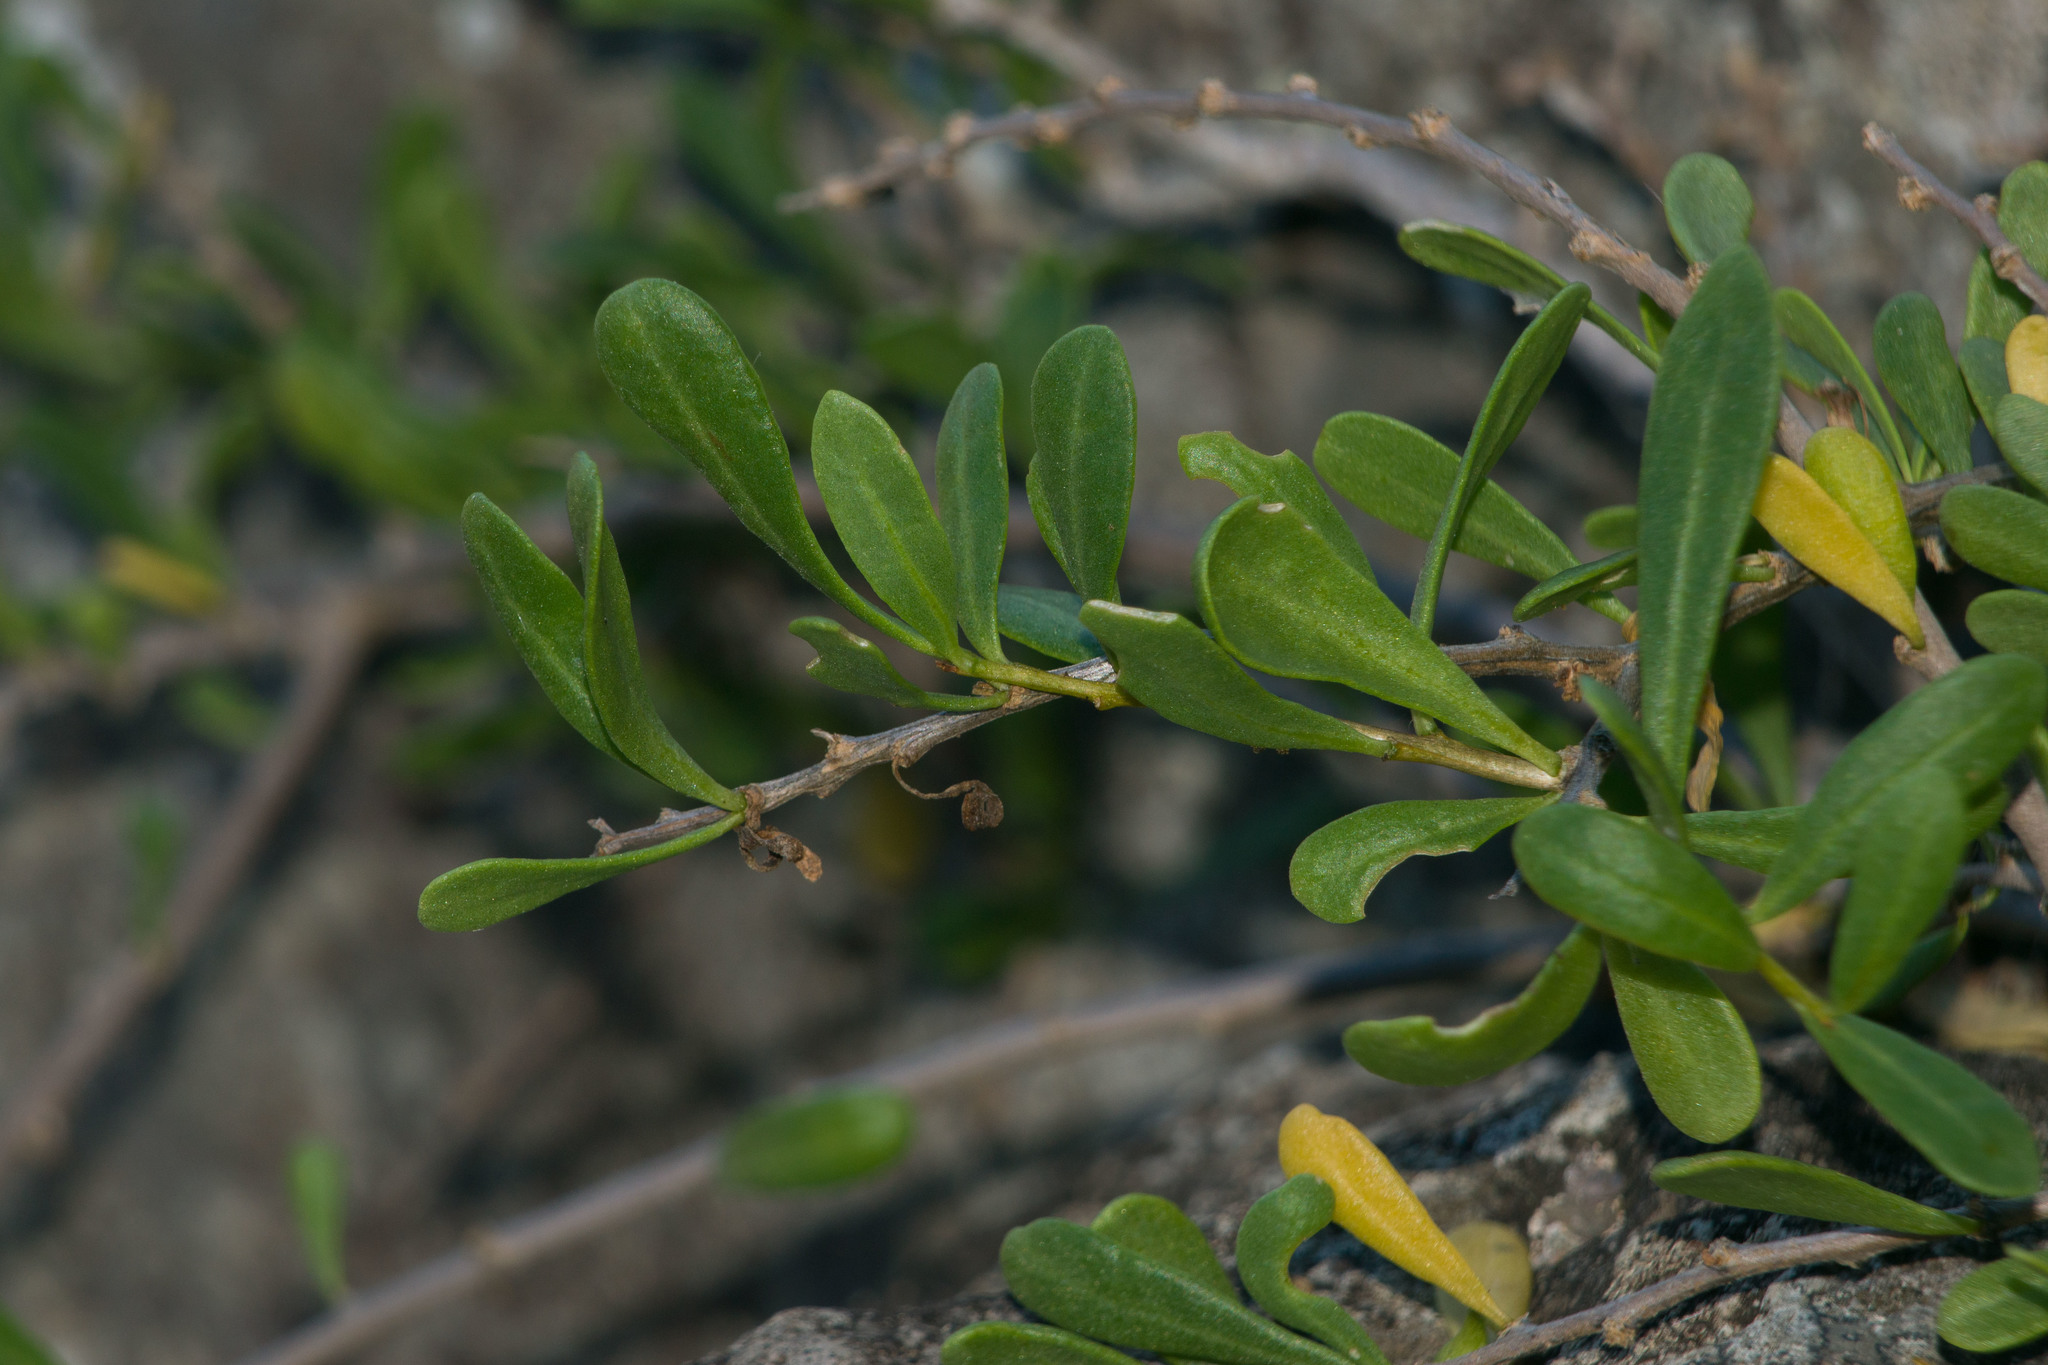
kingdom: Plantae
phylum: Tracheophyta
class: Magnoliopsida
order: Solanales
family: Solanaceae
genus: Lycium
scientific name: Lycium sandwicense
